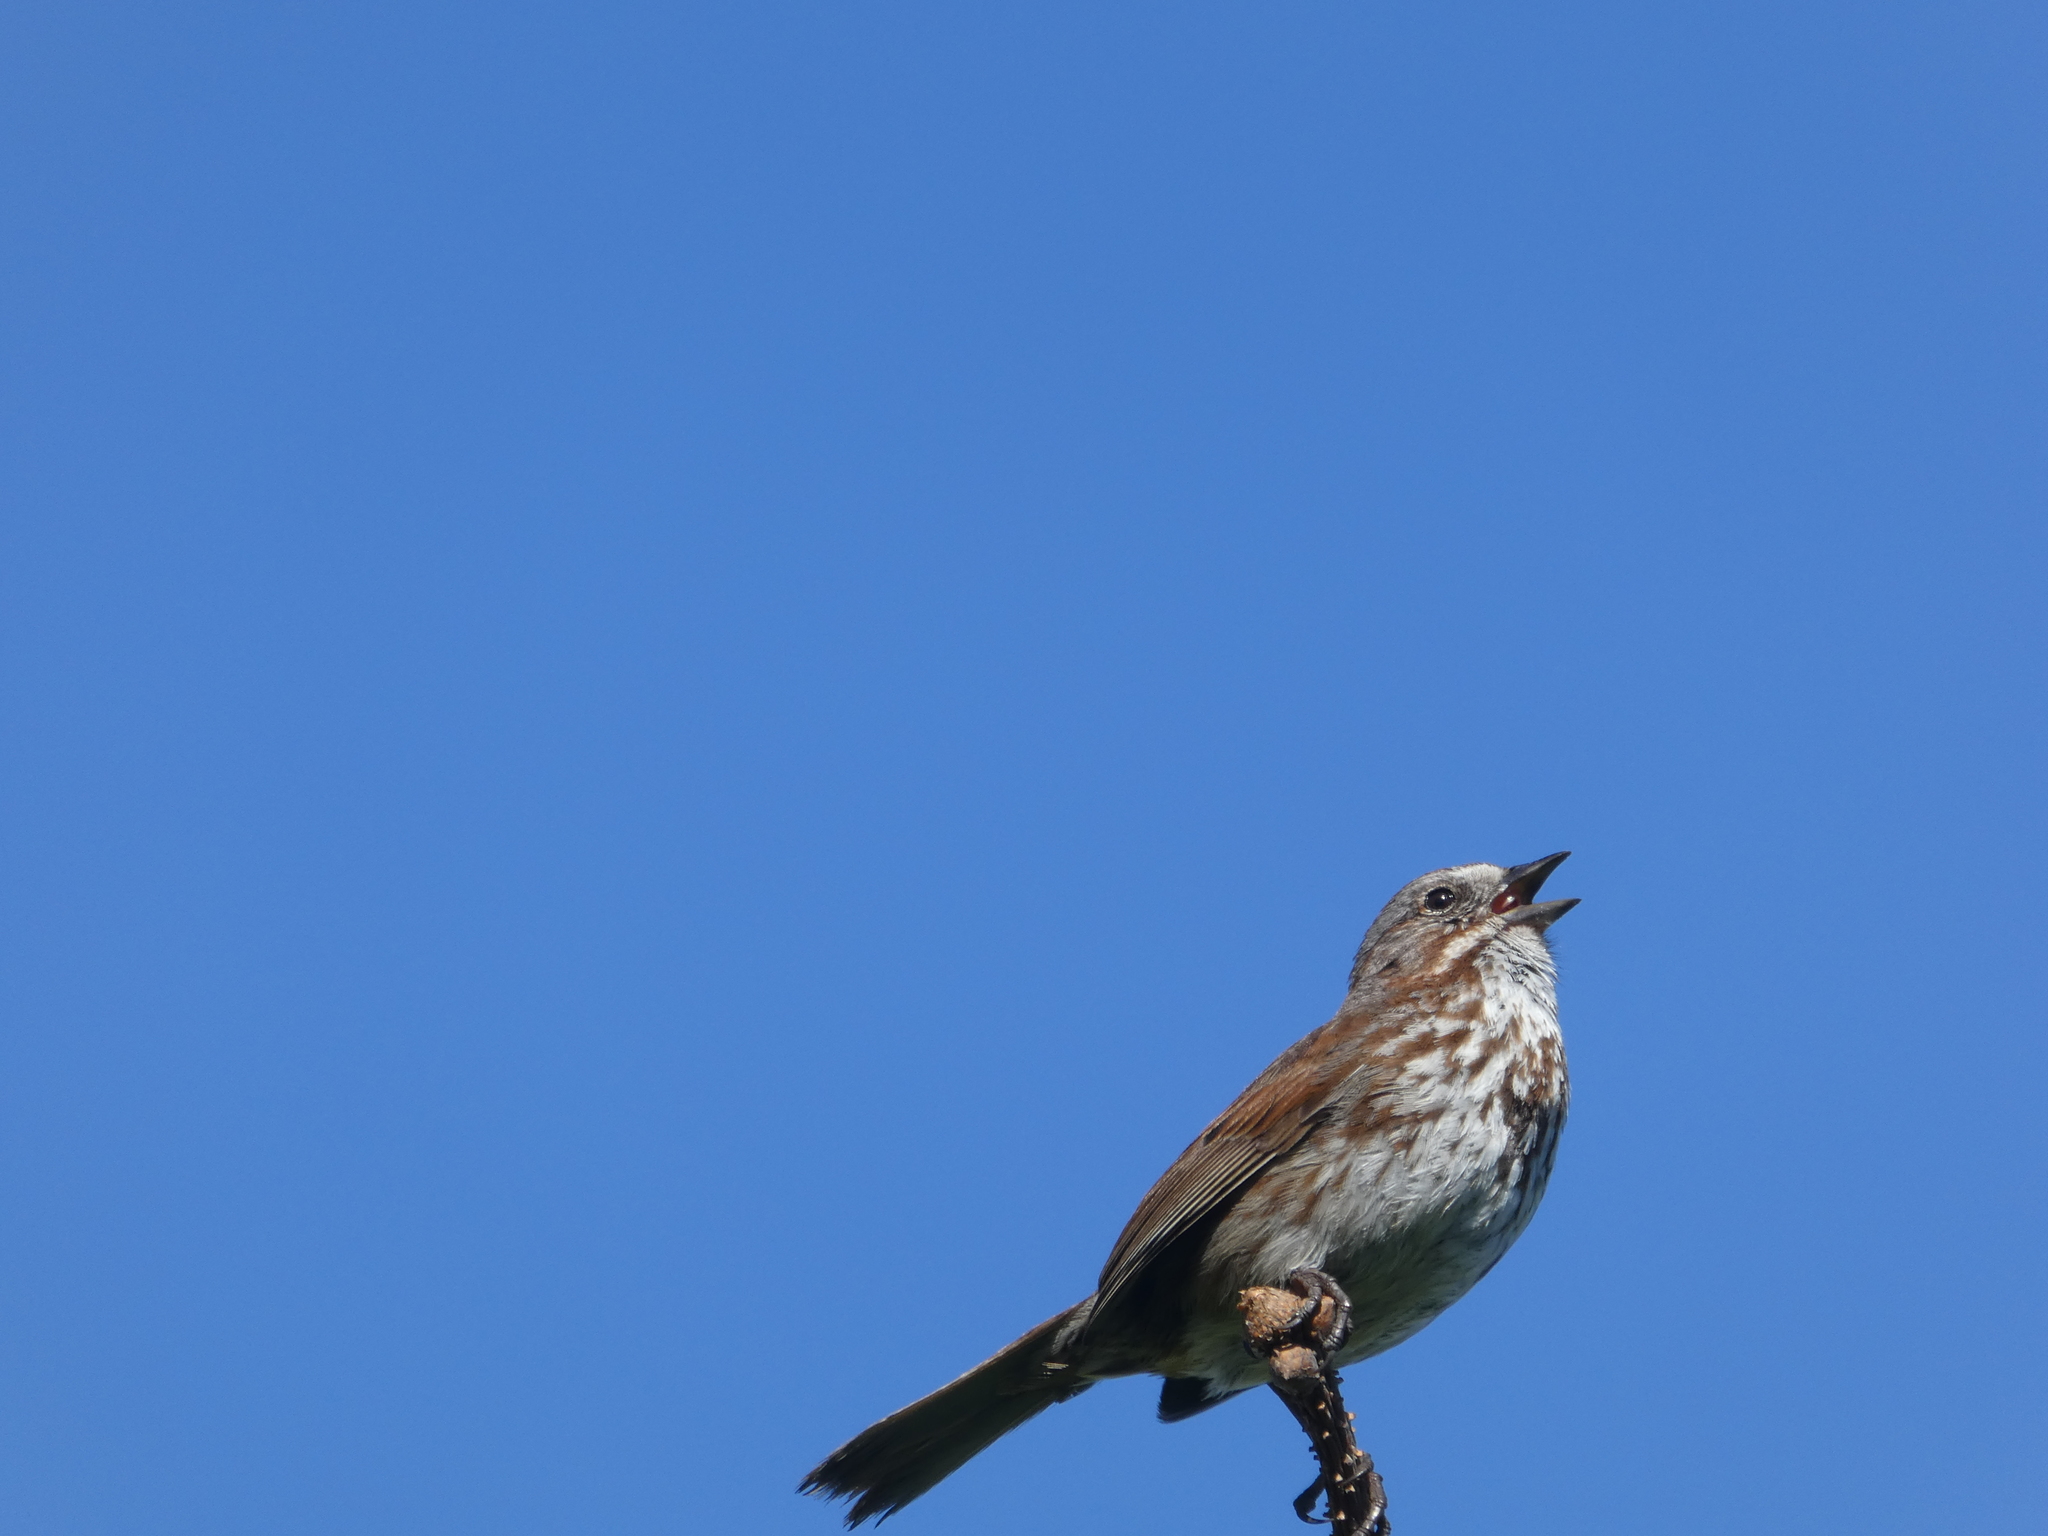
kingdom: Animalia
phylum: Chordata
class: Aves
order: Passeriformes
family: Passerellidae
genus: Melospiza
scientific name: Melospiza melodia
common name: Song sparrow
